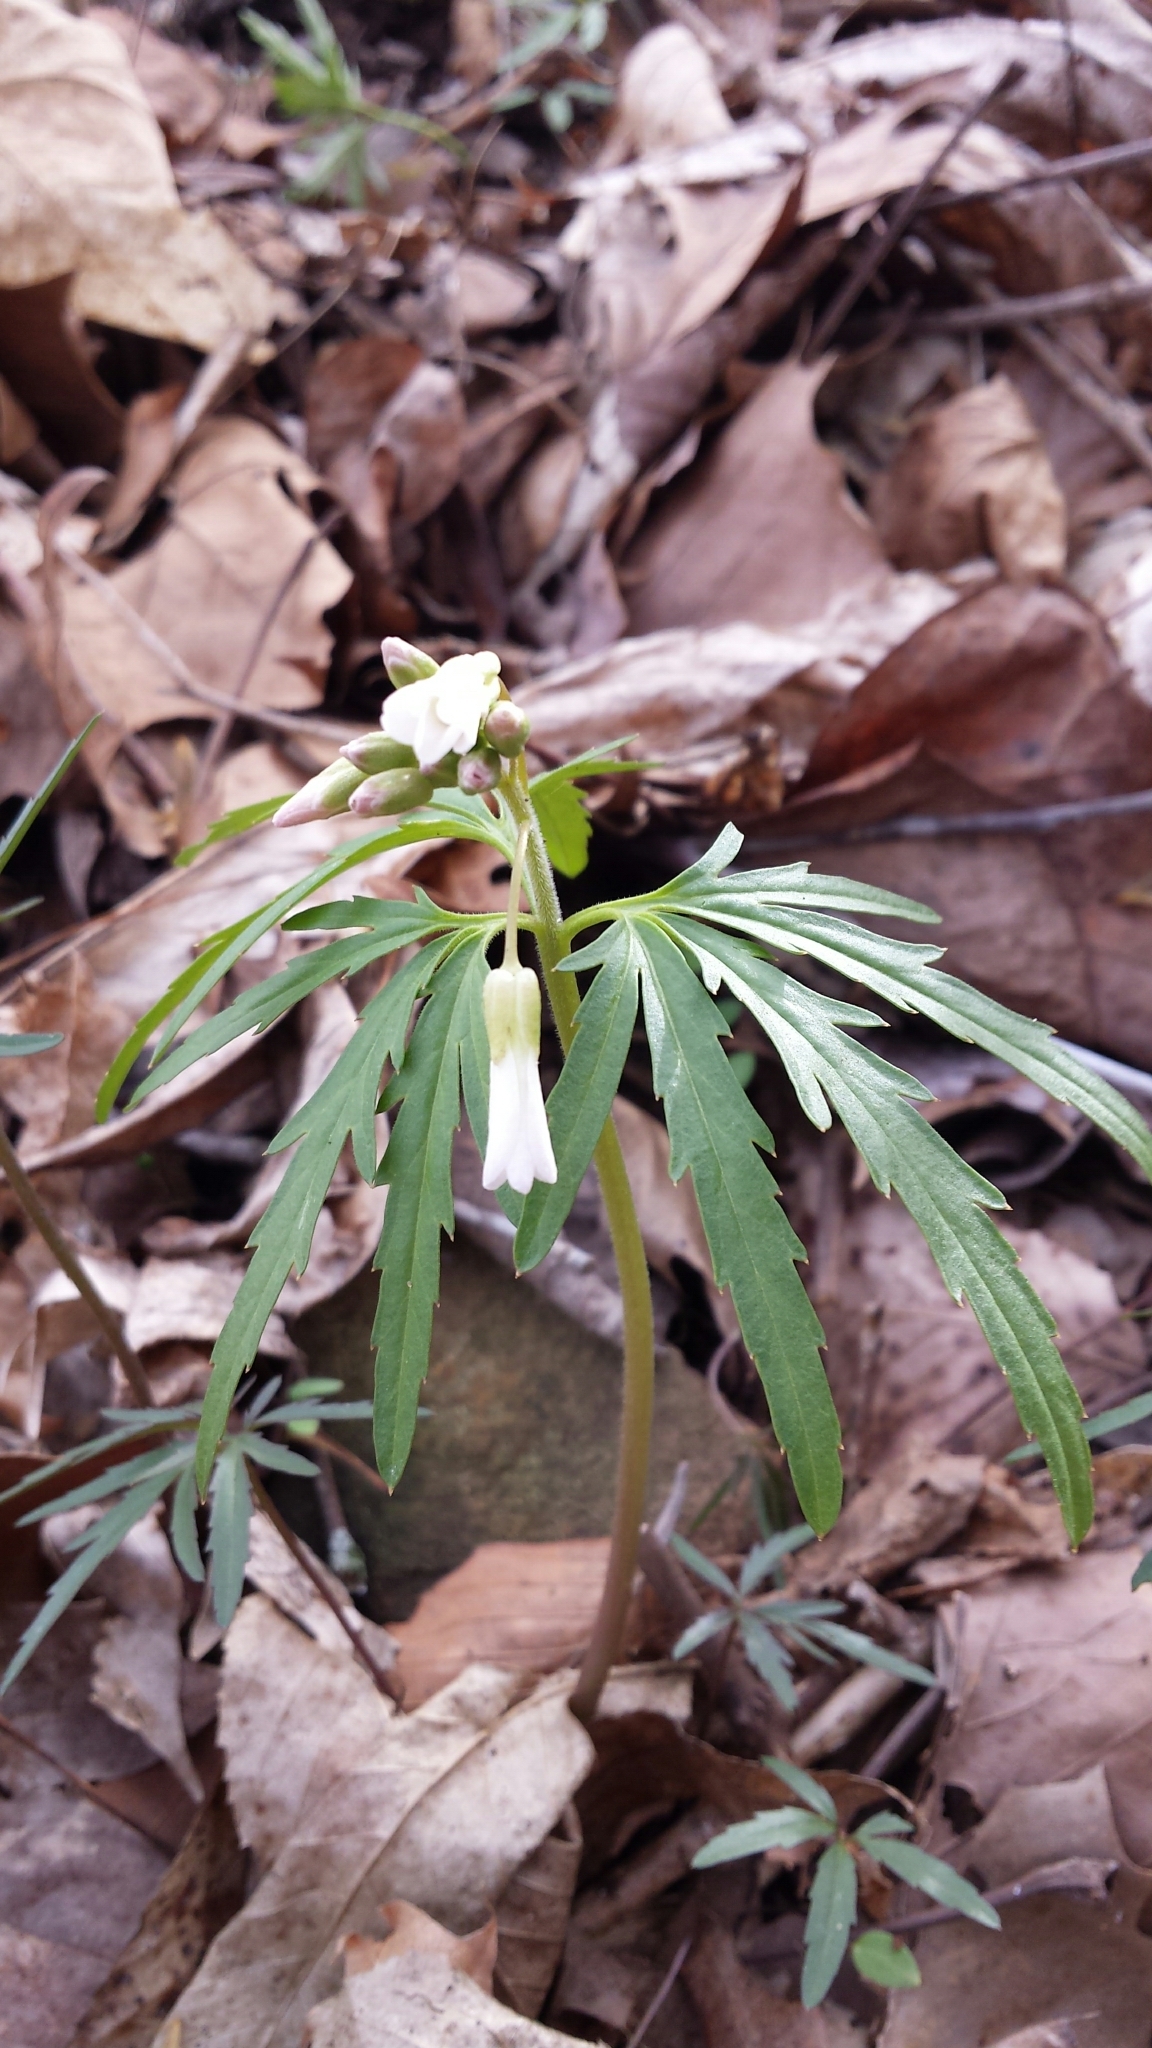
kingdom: Plantae
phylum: Tracheophyta
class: Magnoliopsida
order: Brassicales
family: Brassicaceae
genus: Cardamine
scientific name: Cardamine concatenata
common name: Cut-leaf toothcup
